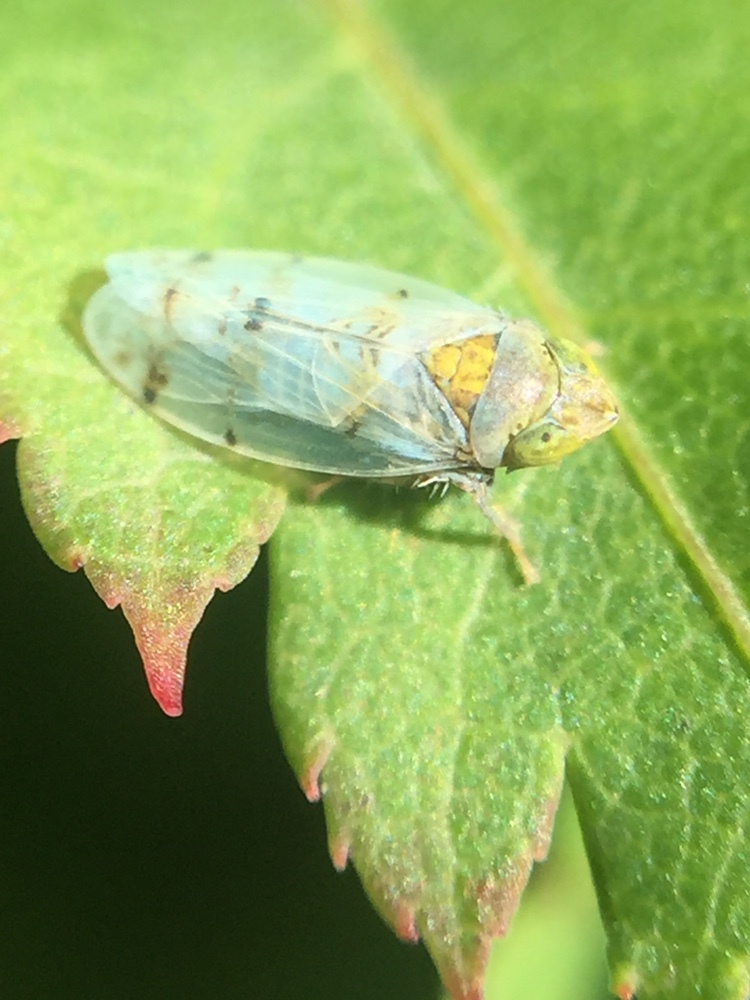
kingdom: Animalia
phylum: Arthropoda
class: Insecta
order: Hemiptera
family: Cicadellidae
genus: Japananus
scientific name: Japananus hyalinus
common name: The japanese maple leafhopper
